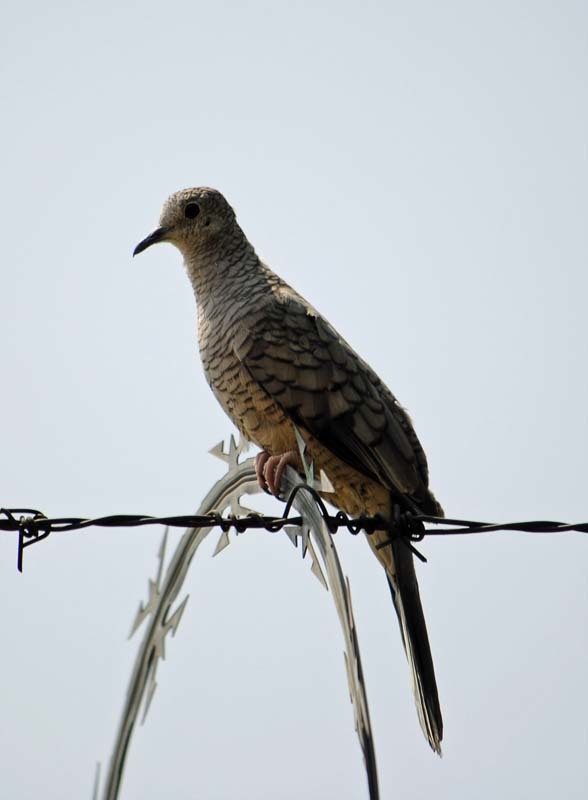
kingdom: Animalia
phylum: Chordata
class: Aves
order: Columbiformes
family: Columbidae
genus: Columbina
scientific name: Columbina inca
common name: Inca dove
